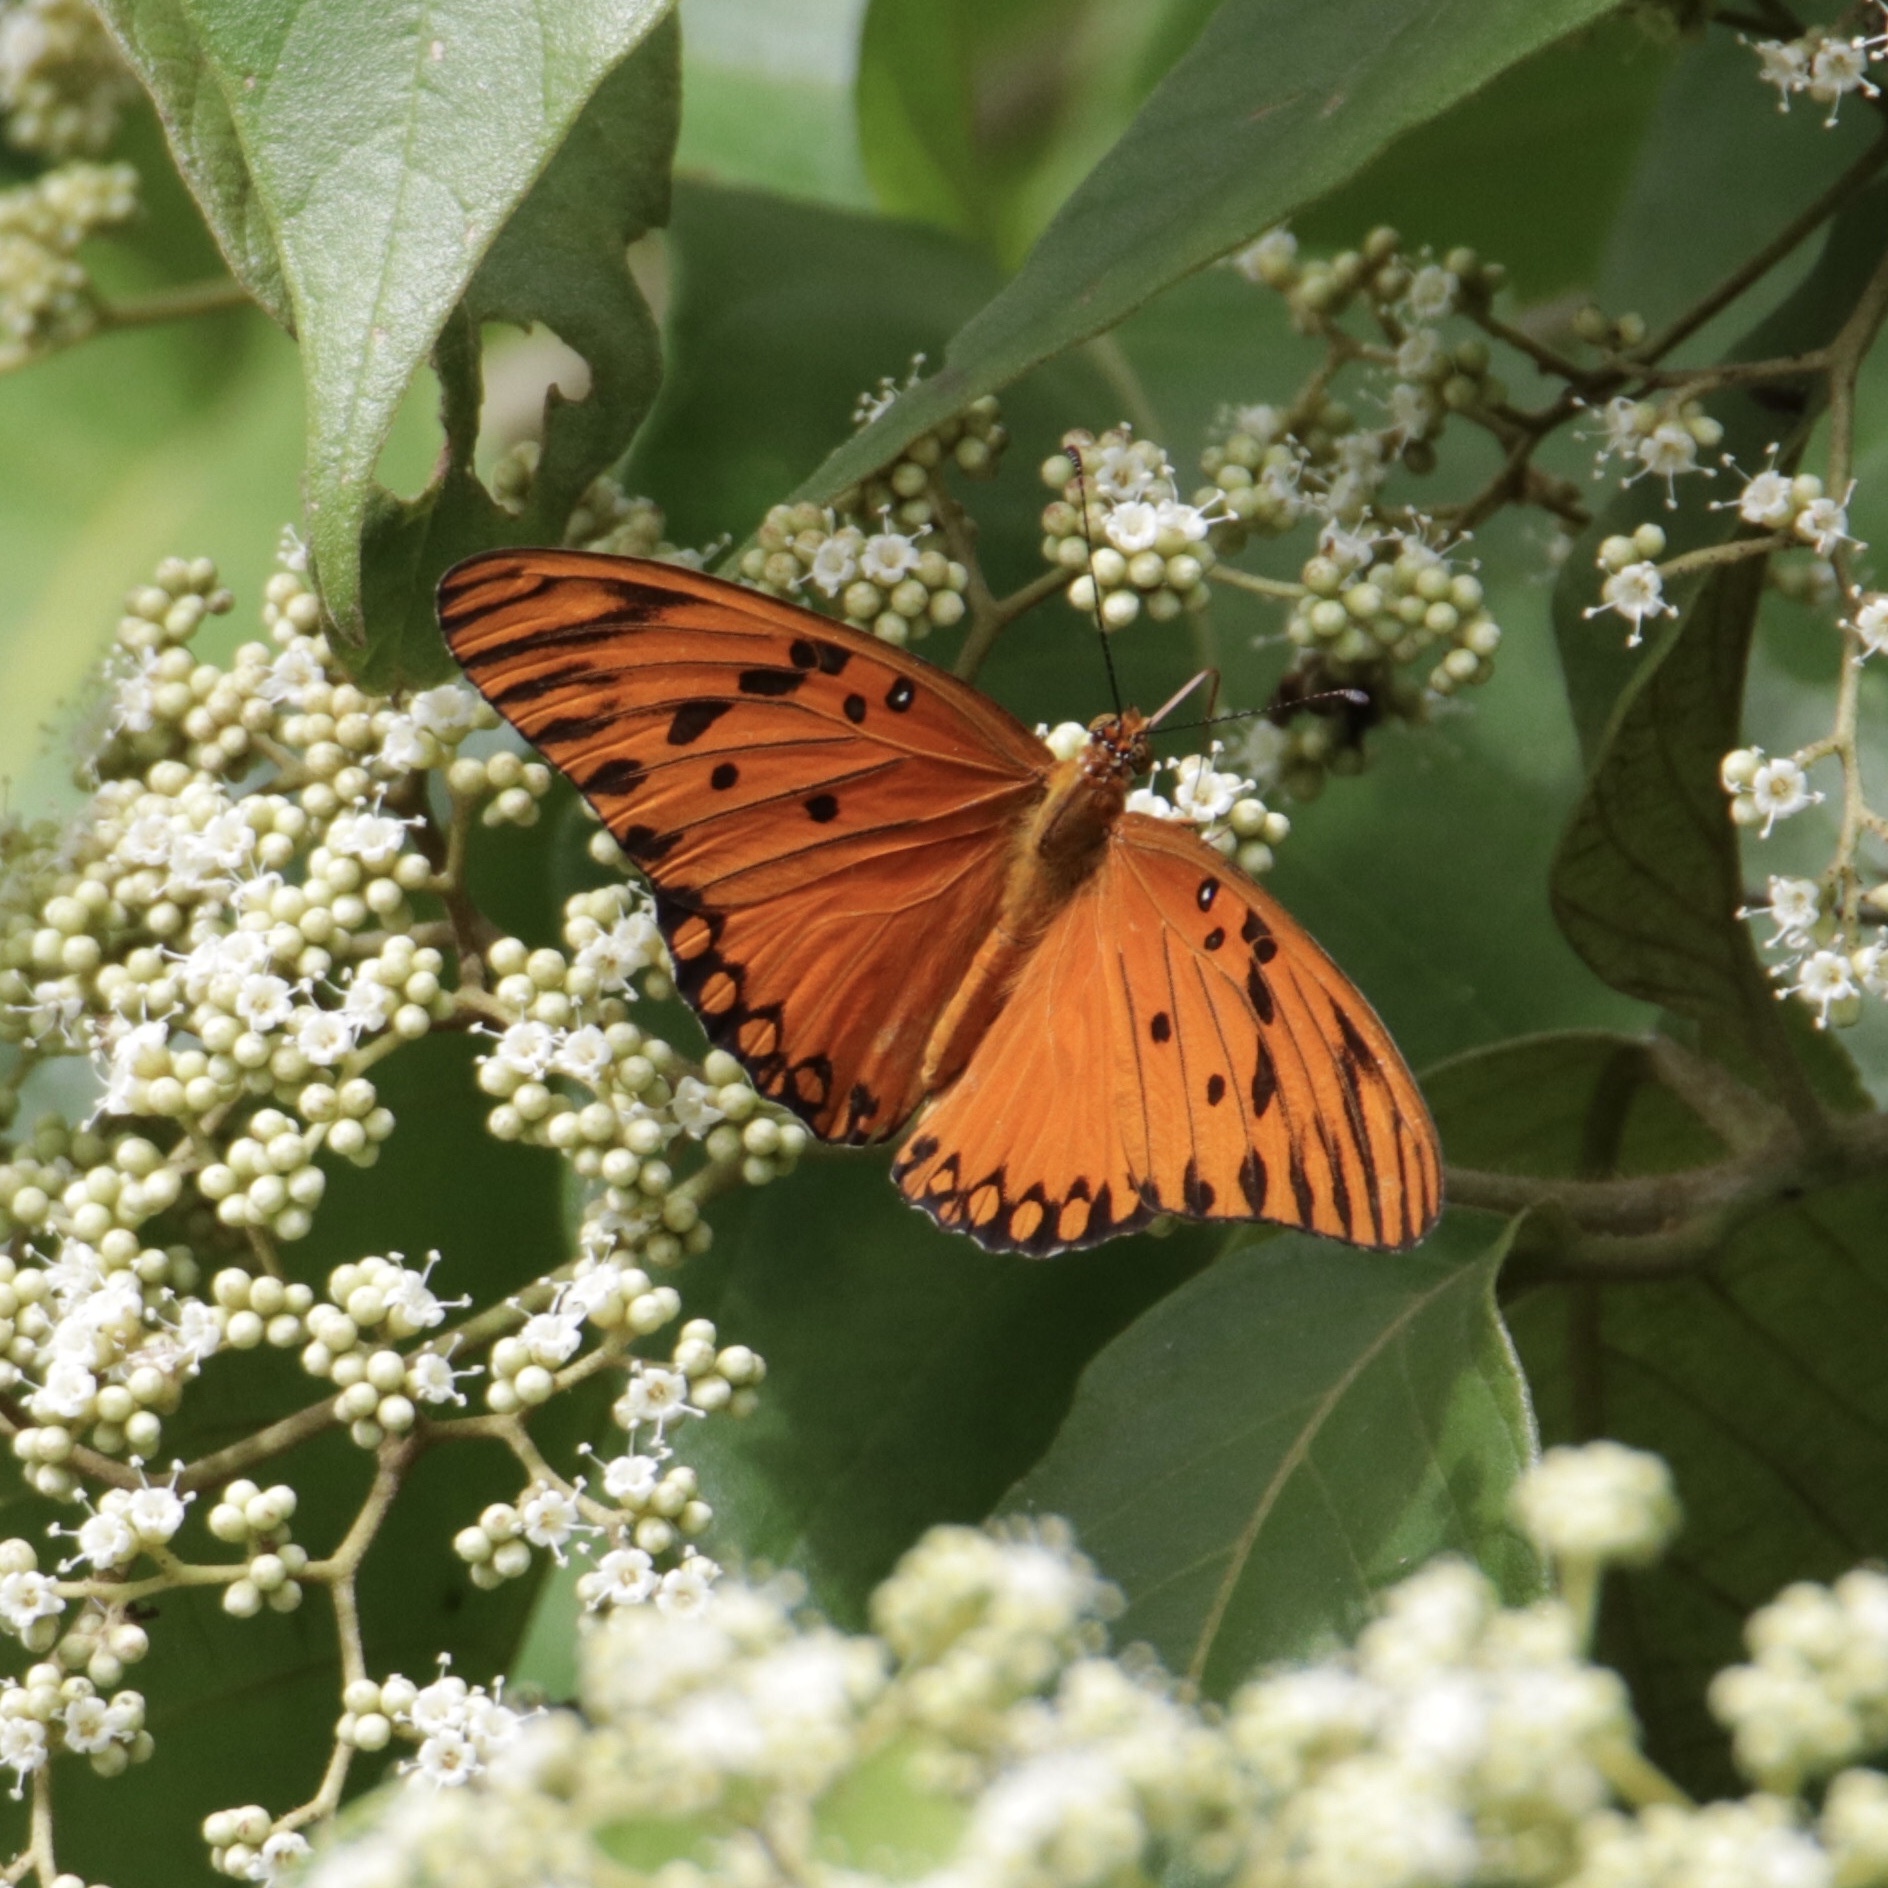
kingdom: Animalia
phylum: Arthropoda
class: Insecta
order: Lepidoptera
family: Nymphalidae
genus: Dione
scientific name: Dione vanillae
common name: Gulf fritillary
